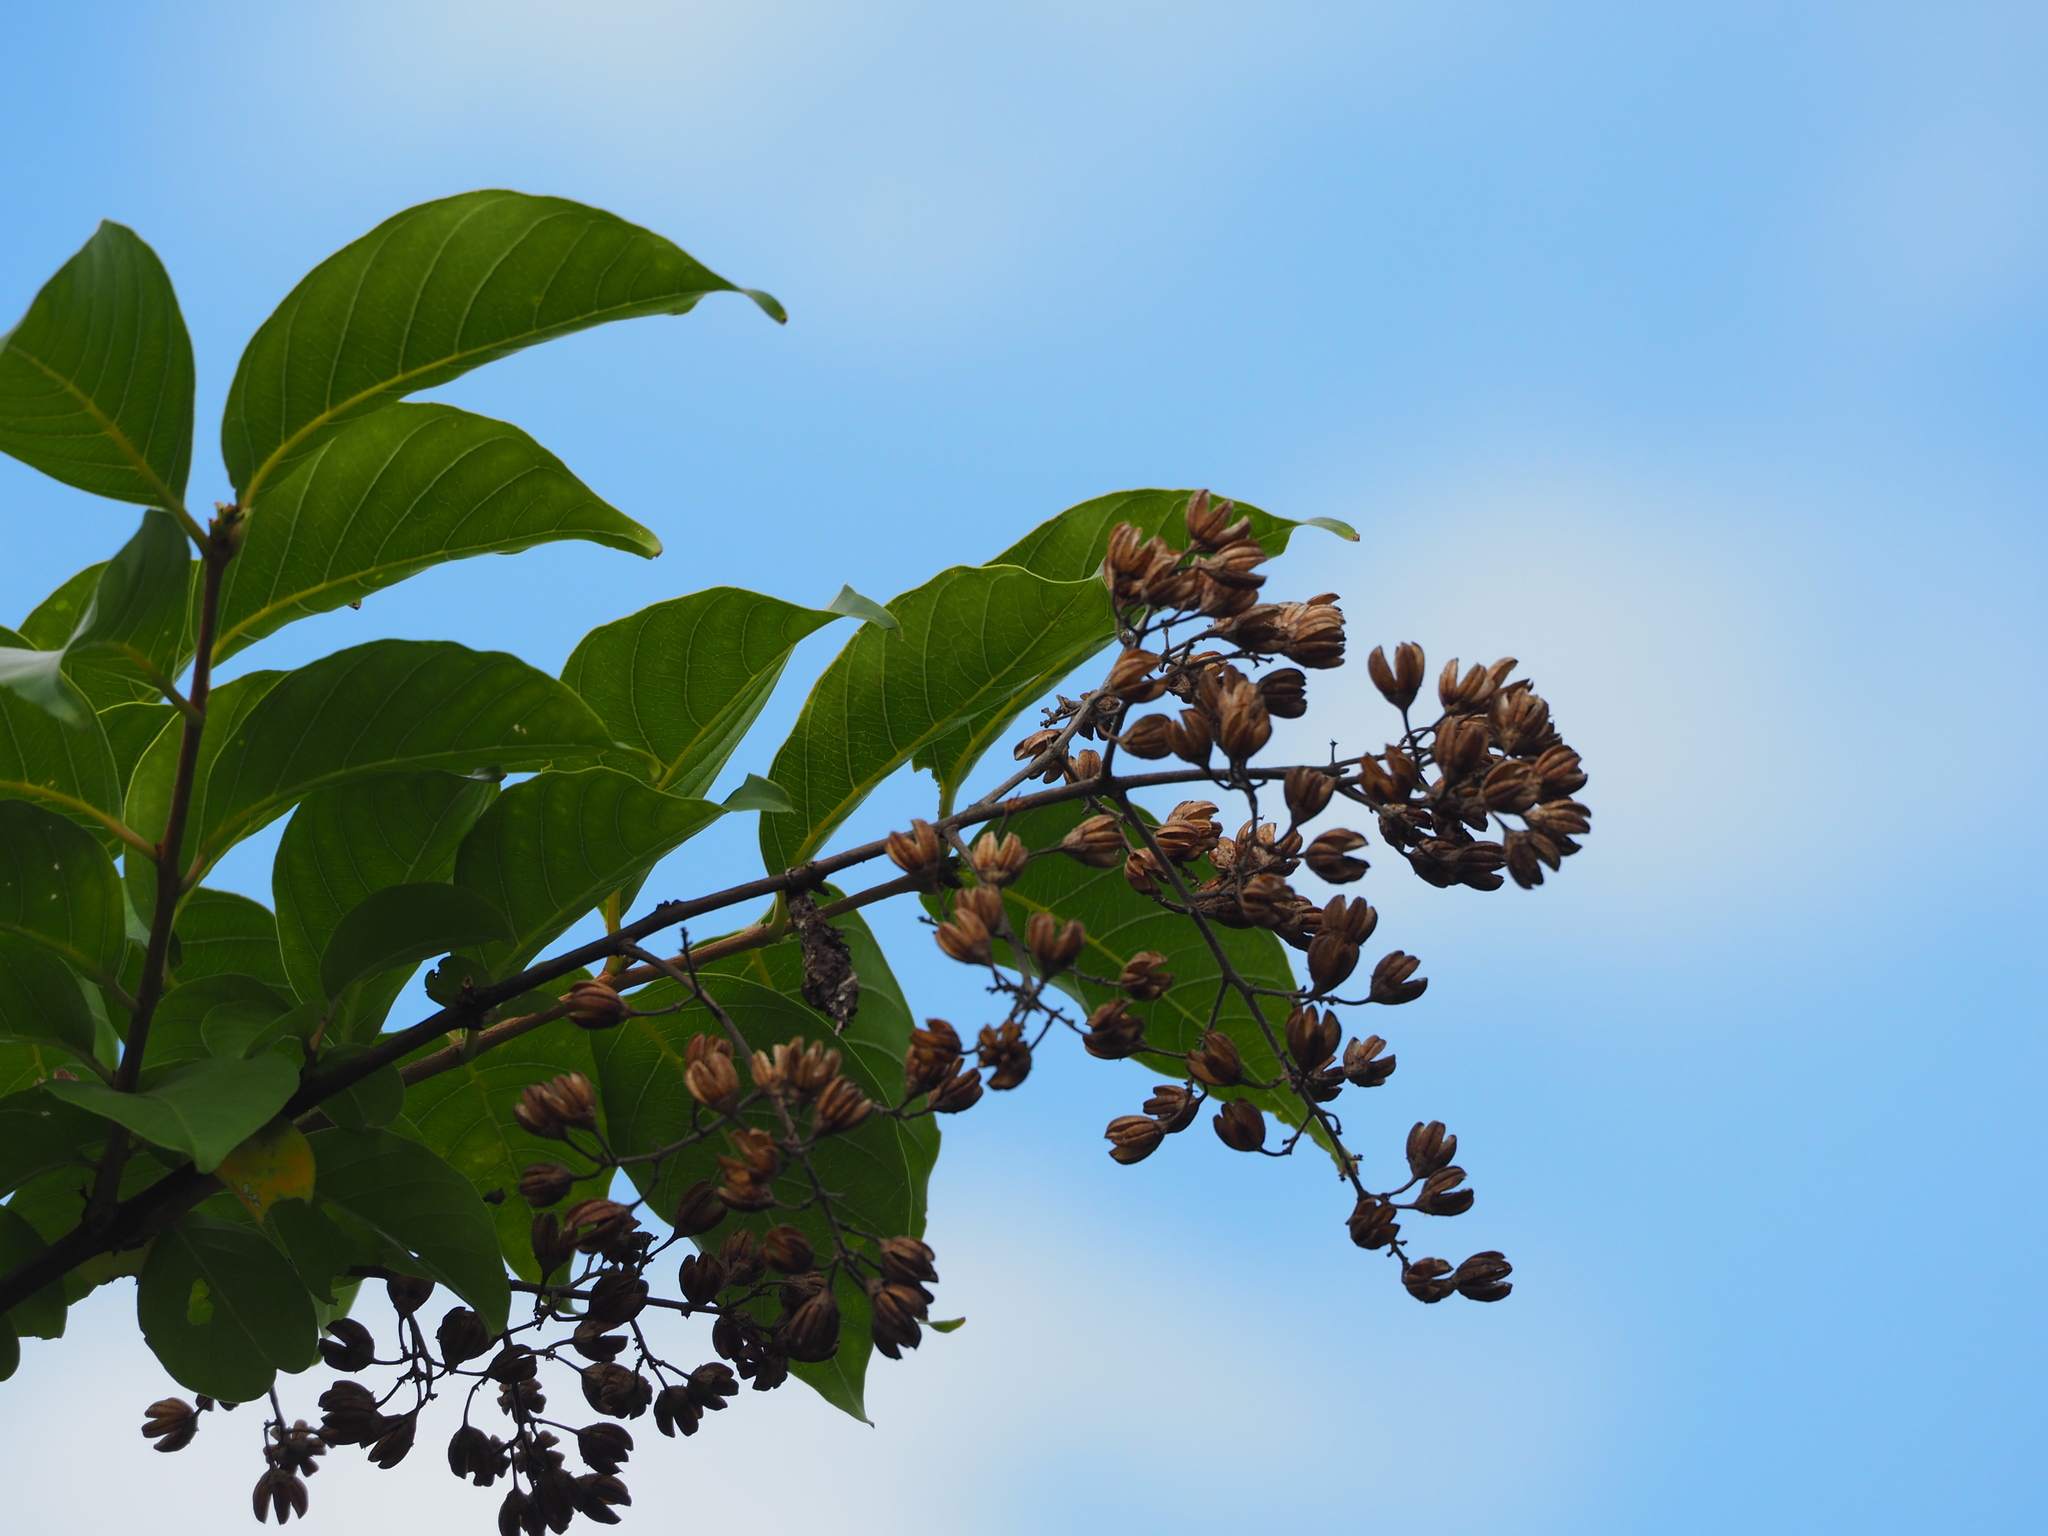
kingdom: Plantae
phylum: Tracheophyta
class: Magnoliopsida
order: Myrtales
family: Lythraceae
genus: Lagerstroemia
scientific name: Lagerstroemia subcostata
